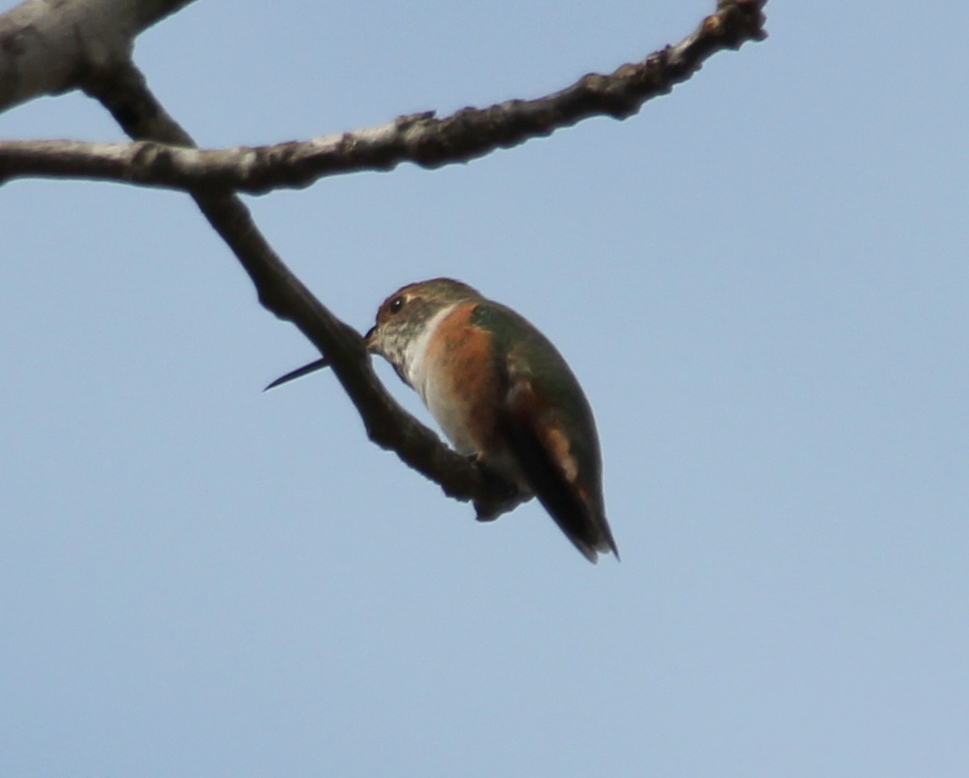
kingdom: Animalia
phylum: Chordata
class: Aves
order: Apodiformes
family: Trochilidae
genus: Selasphorus
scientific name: Selasphorus sasin
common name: Allen's hummingbird
